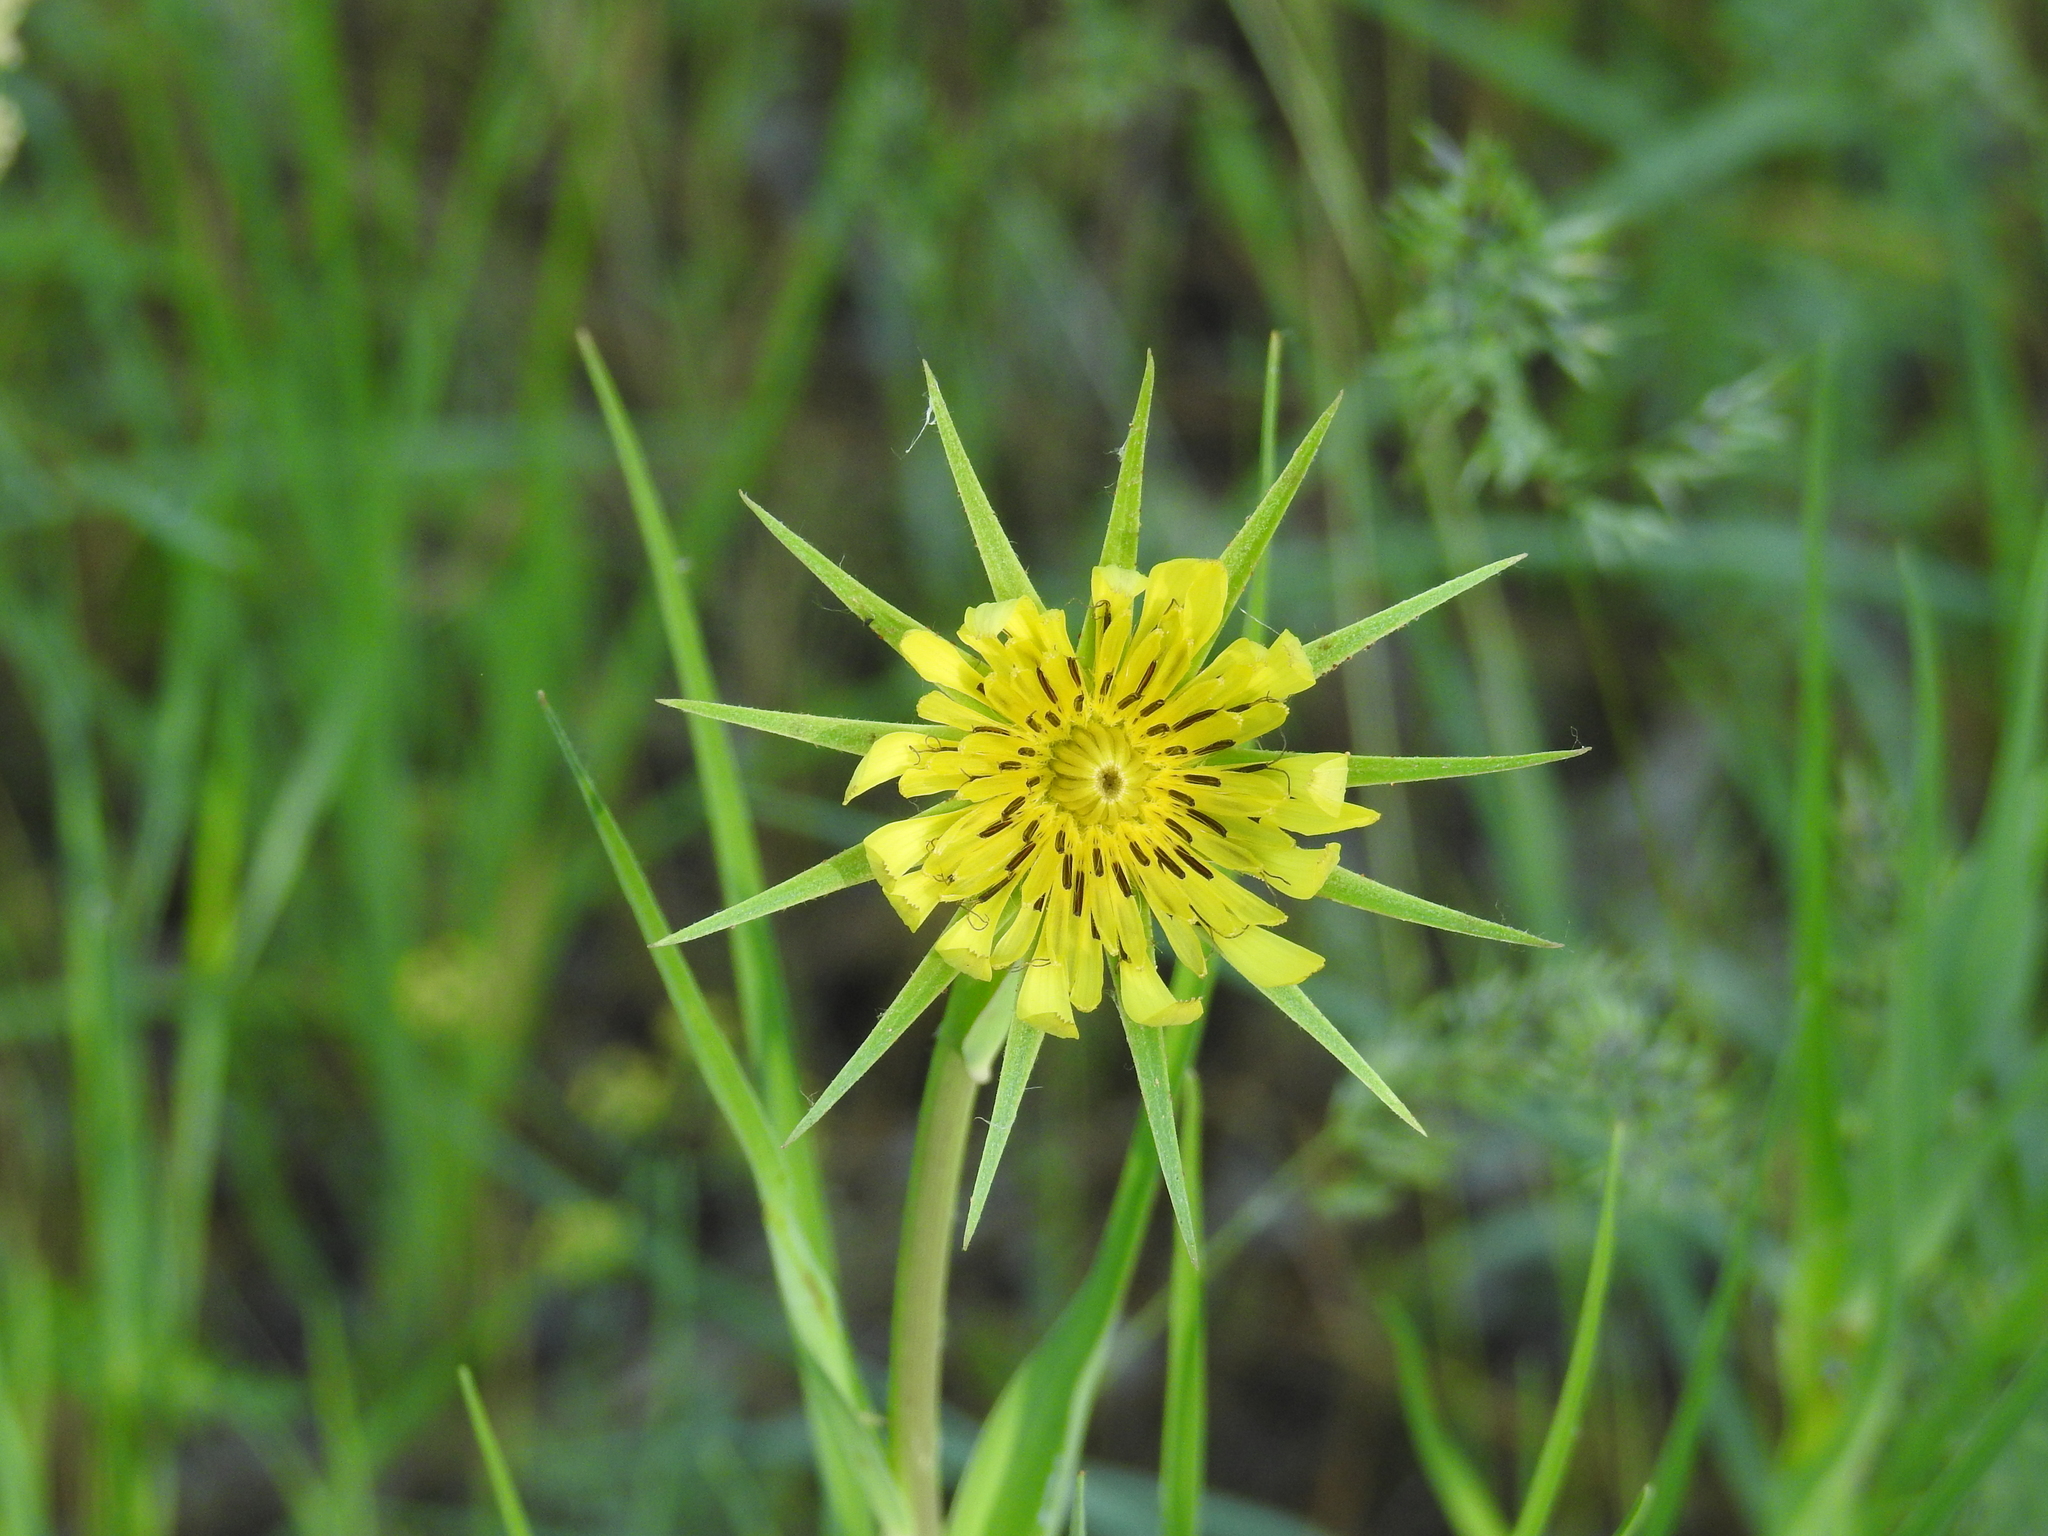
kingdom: Plantae
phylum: Tracheophyta
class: Magnoliopsida
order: Asterales
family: Asteraceae
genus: Tragopogon
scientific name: Tragopogon dubius
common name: Yellow salsify
